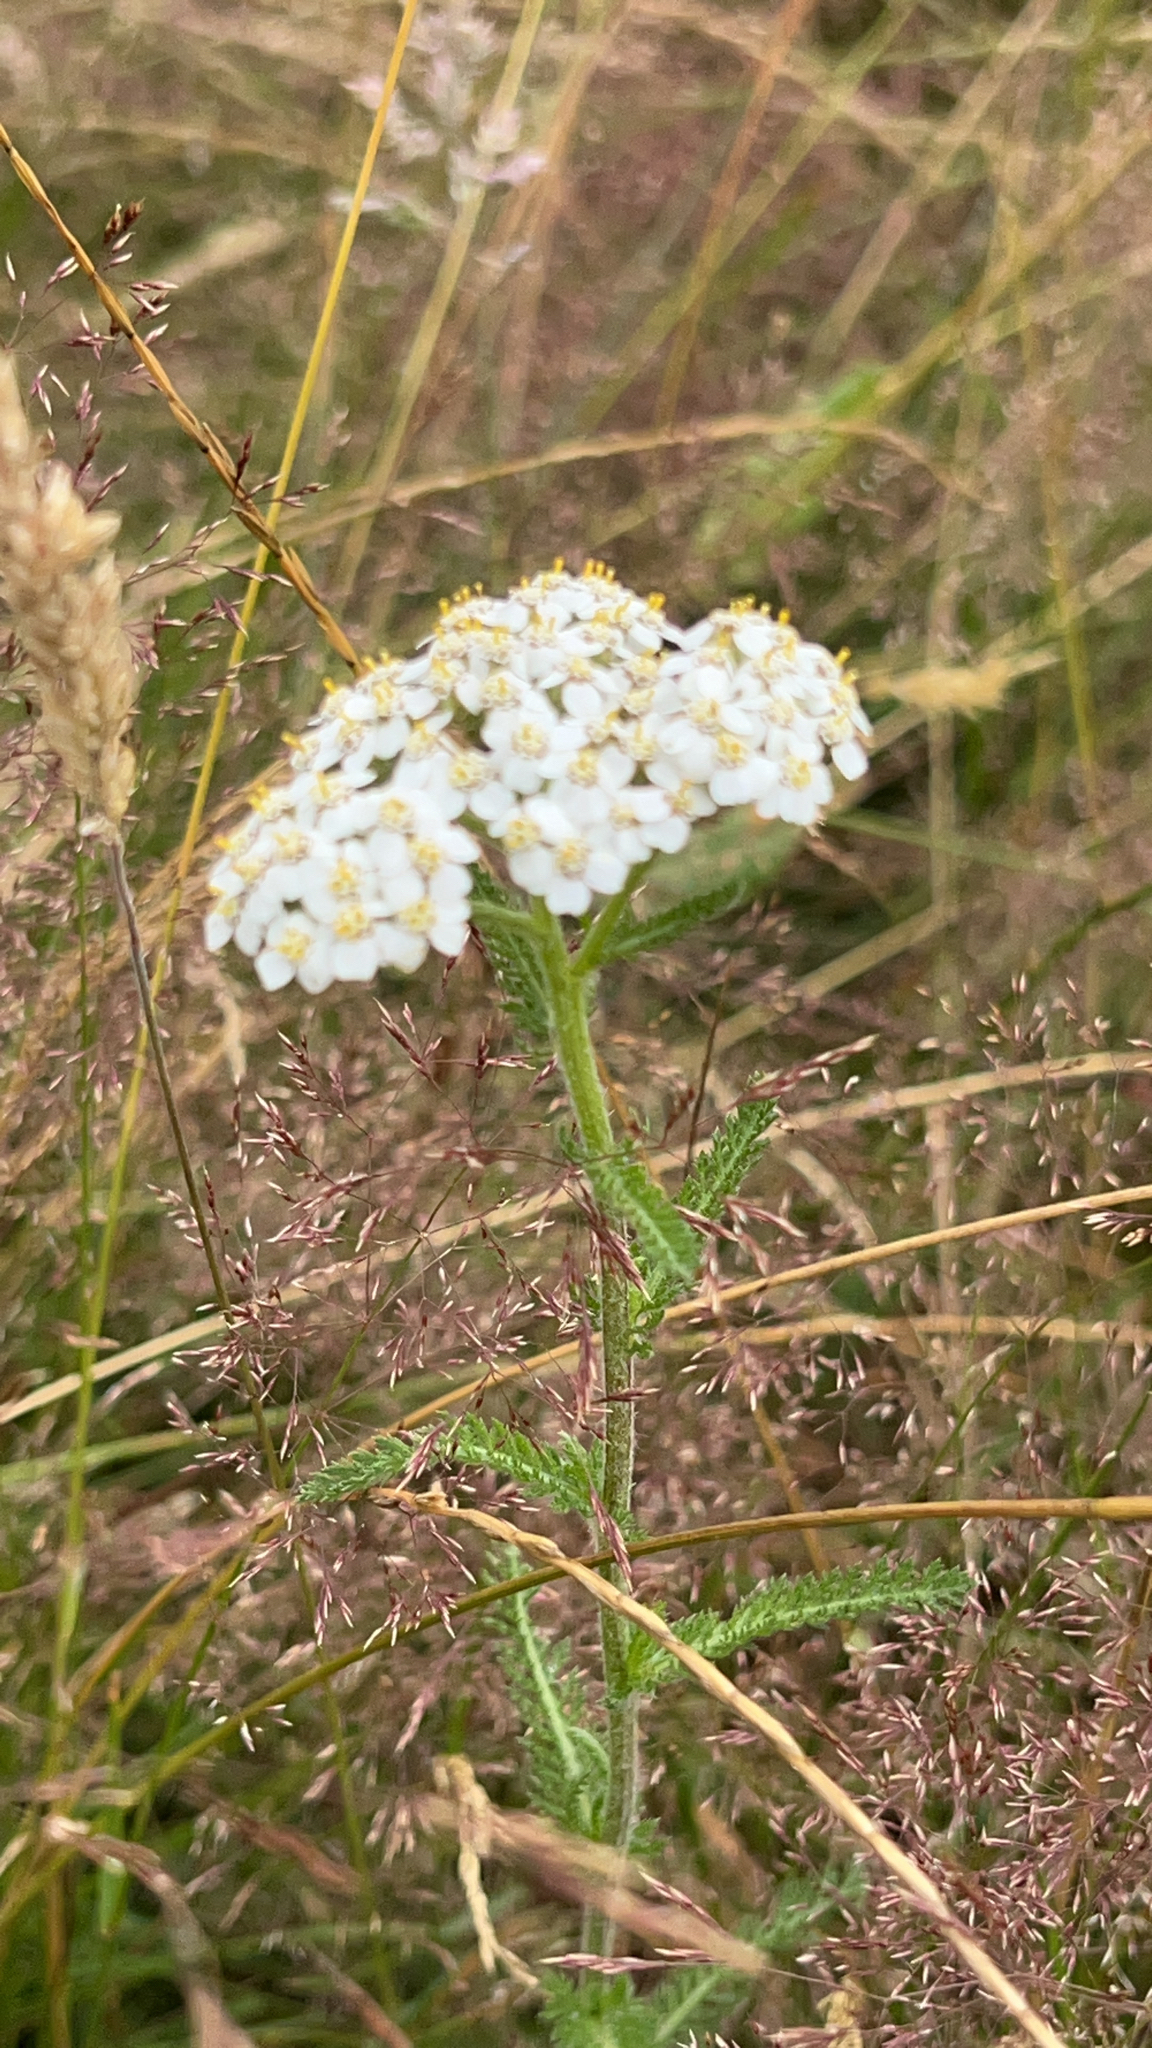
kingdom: Plantae
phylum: Tracheophyta
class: Magnoliopsida
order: Asterales
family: Asteraceae
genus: Achillea
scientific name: Achillea millefolium
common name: Yarrow
